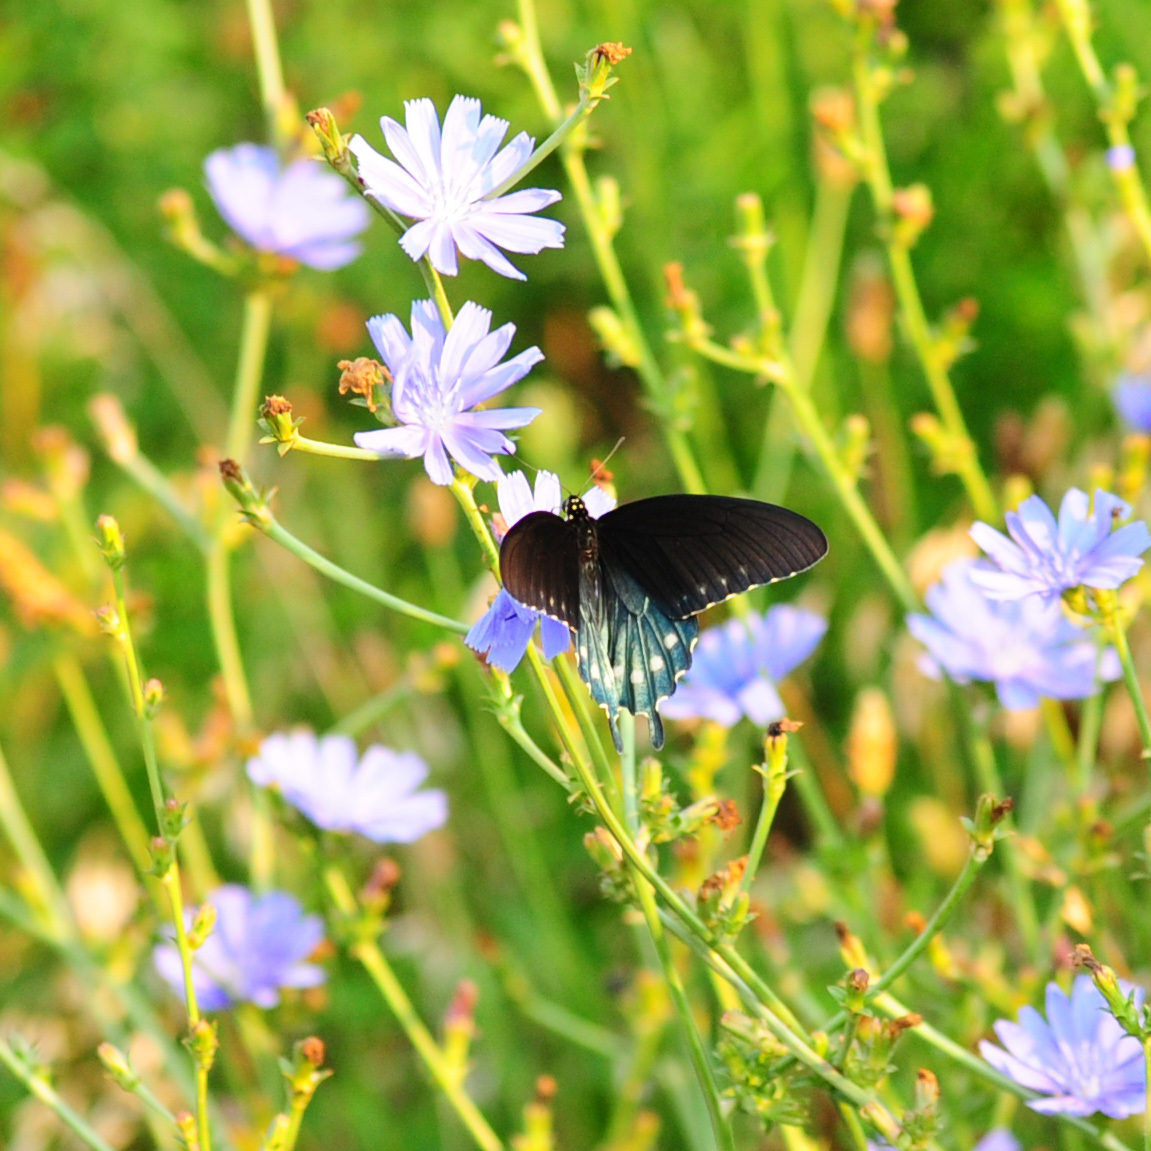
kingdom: Animalia
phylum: Arthropoda
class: Insecta
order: Lepidoptera
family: Papilionidae
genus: Battus
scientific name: Battus philenor
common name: Pipevine swallowtail
